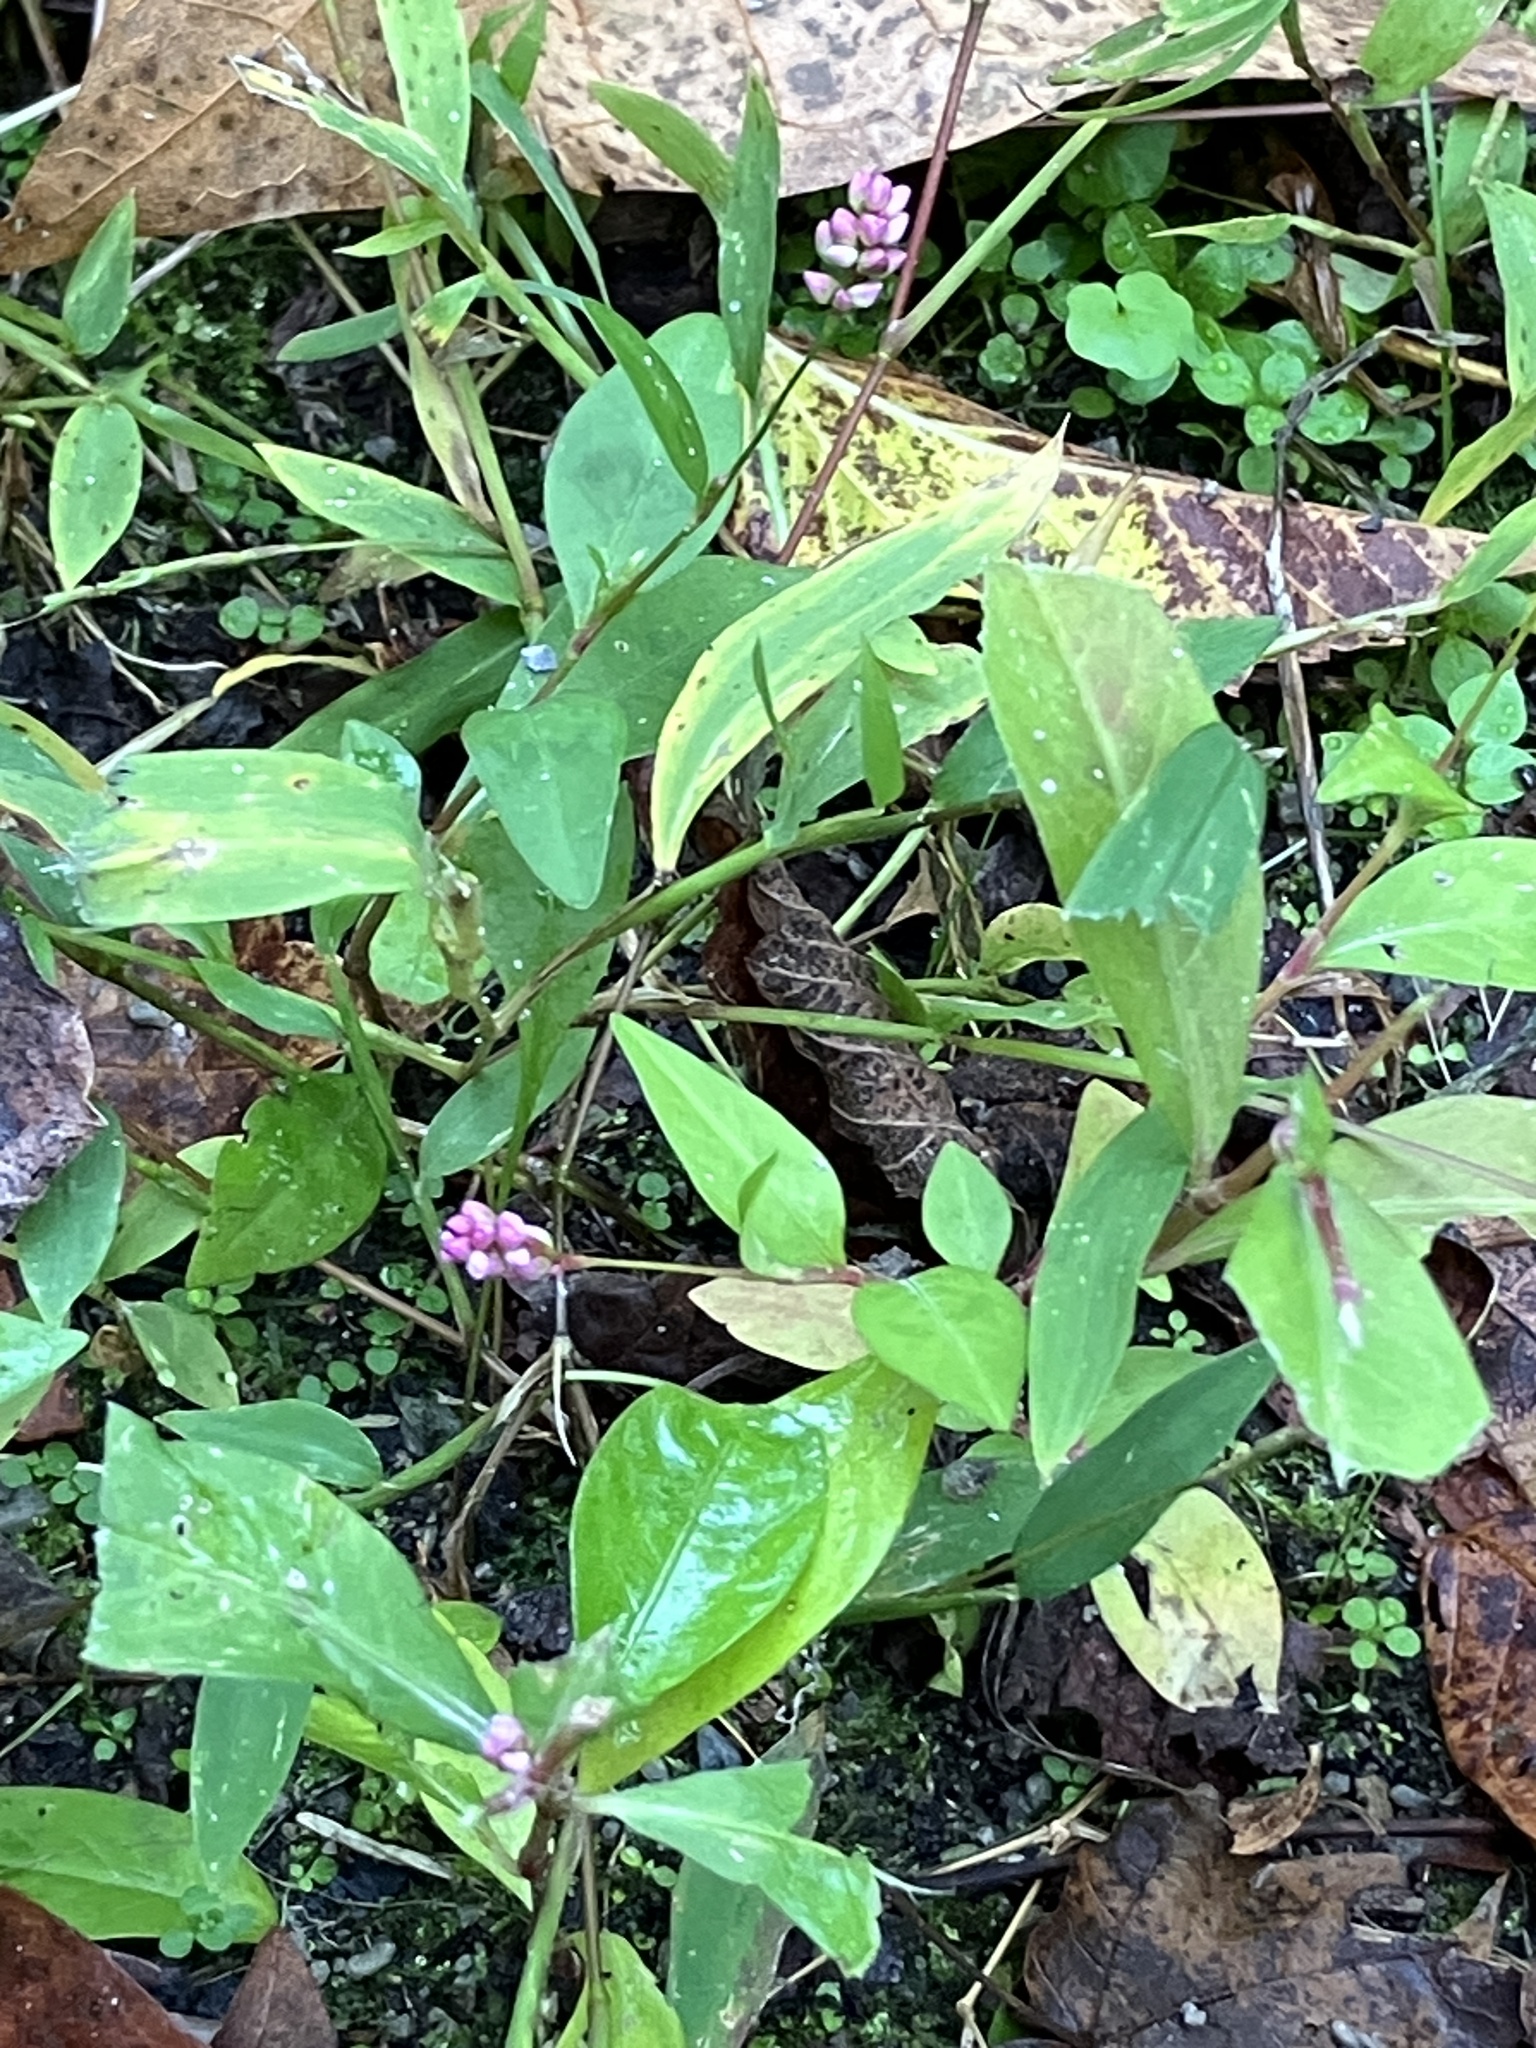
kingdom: Plantae
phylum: Tracheophyta
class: Magnoliopsida
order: Caryophyllales
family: Polygonaceae
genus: Persicaria
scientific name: Persicaria longiseta
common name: Bristly lady's-thumb
